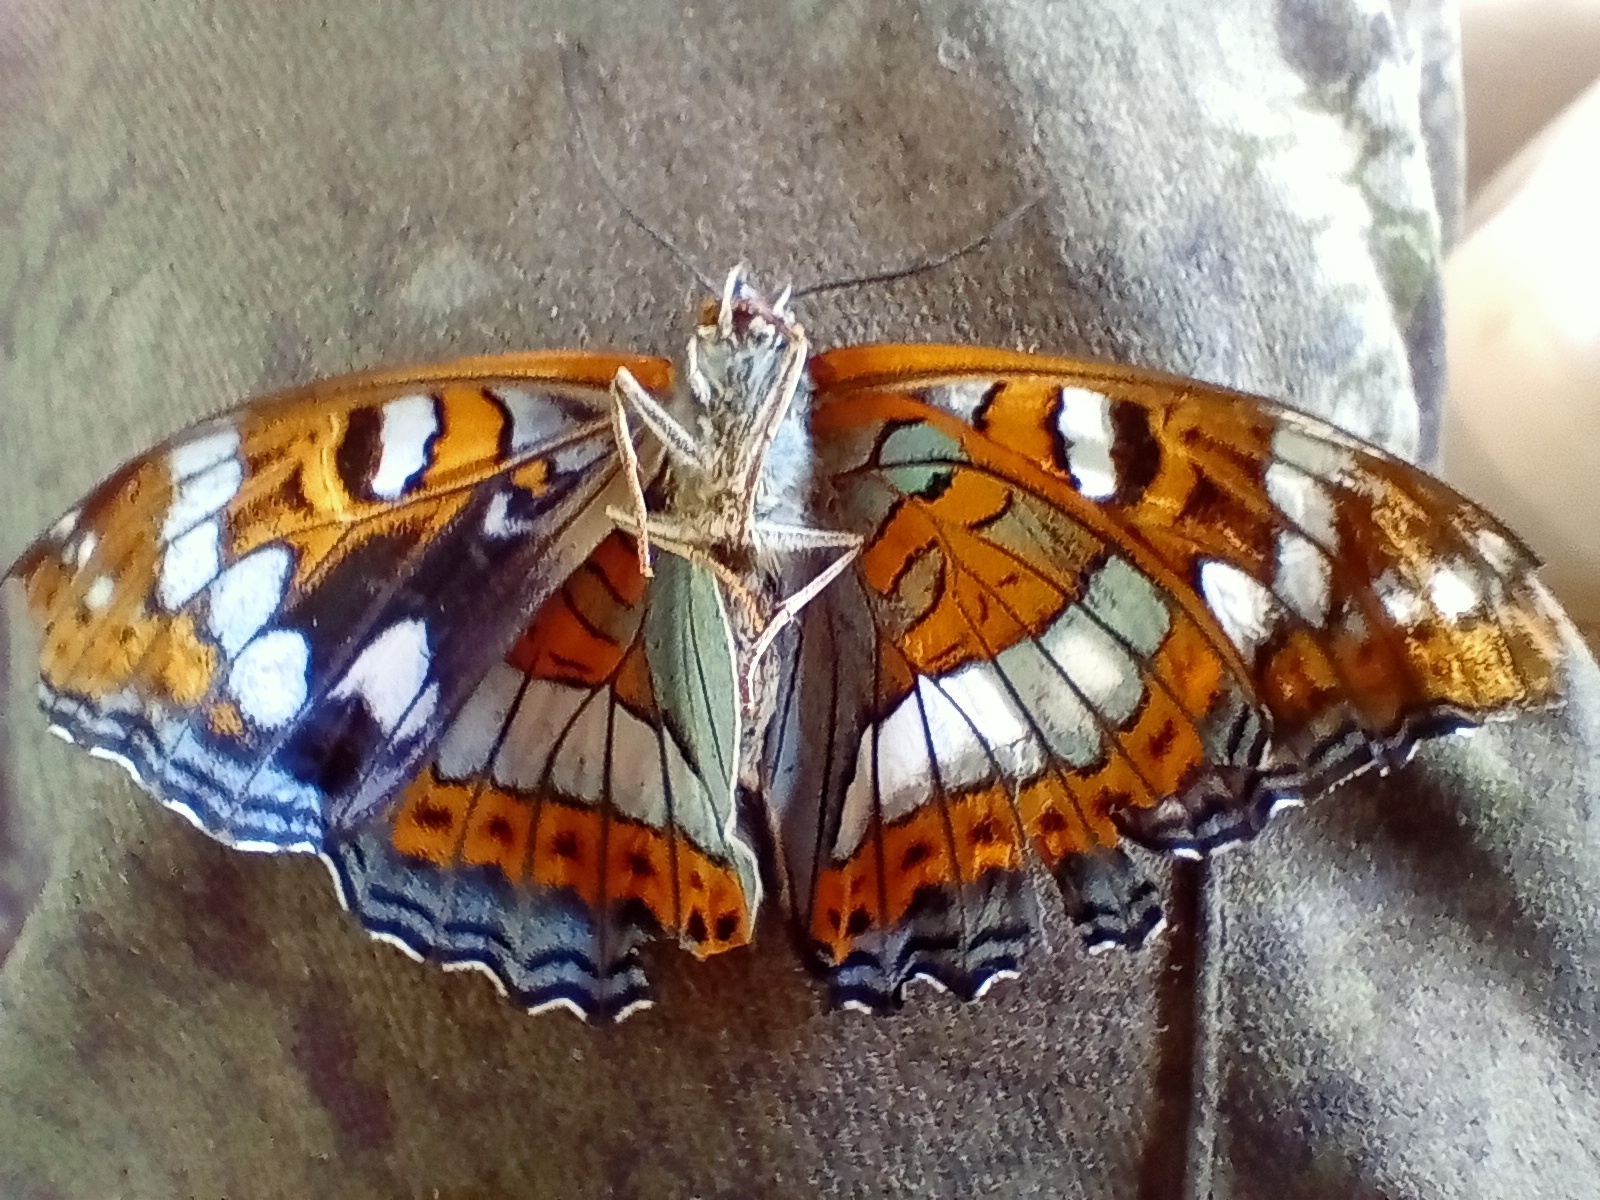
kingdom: Animalia
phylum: Arthropoda
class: Insecta
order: Lepidoptera
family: Nymphalidae
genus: Limenitis
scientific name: Limenitis populi
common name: Poplar admiral
